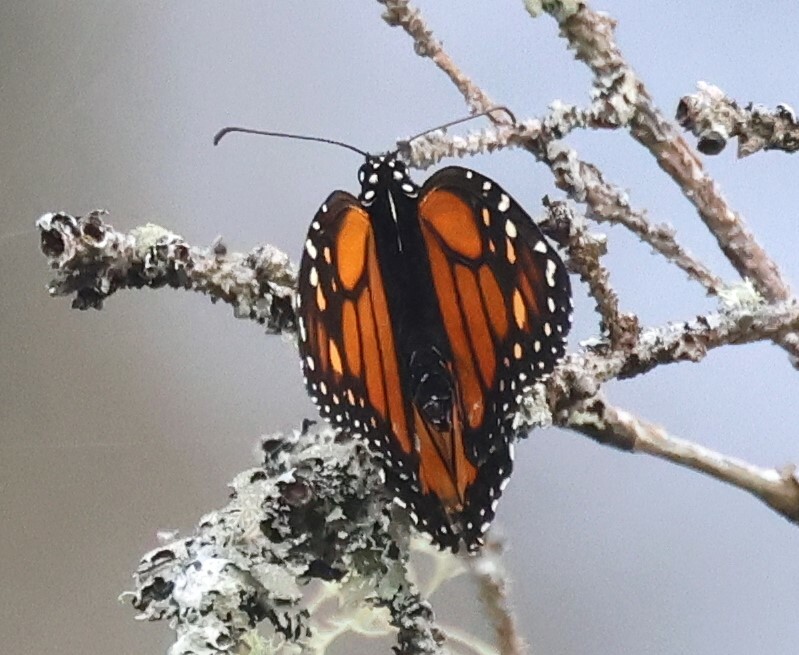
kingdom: Animalia
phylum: Arthropoda
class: Insecta
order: Lepidoptera
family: Nymphalidae
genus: Danaus
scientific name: Danaus plexippus
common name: Monarch
